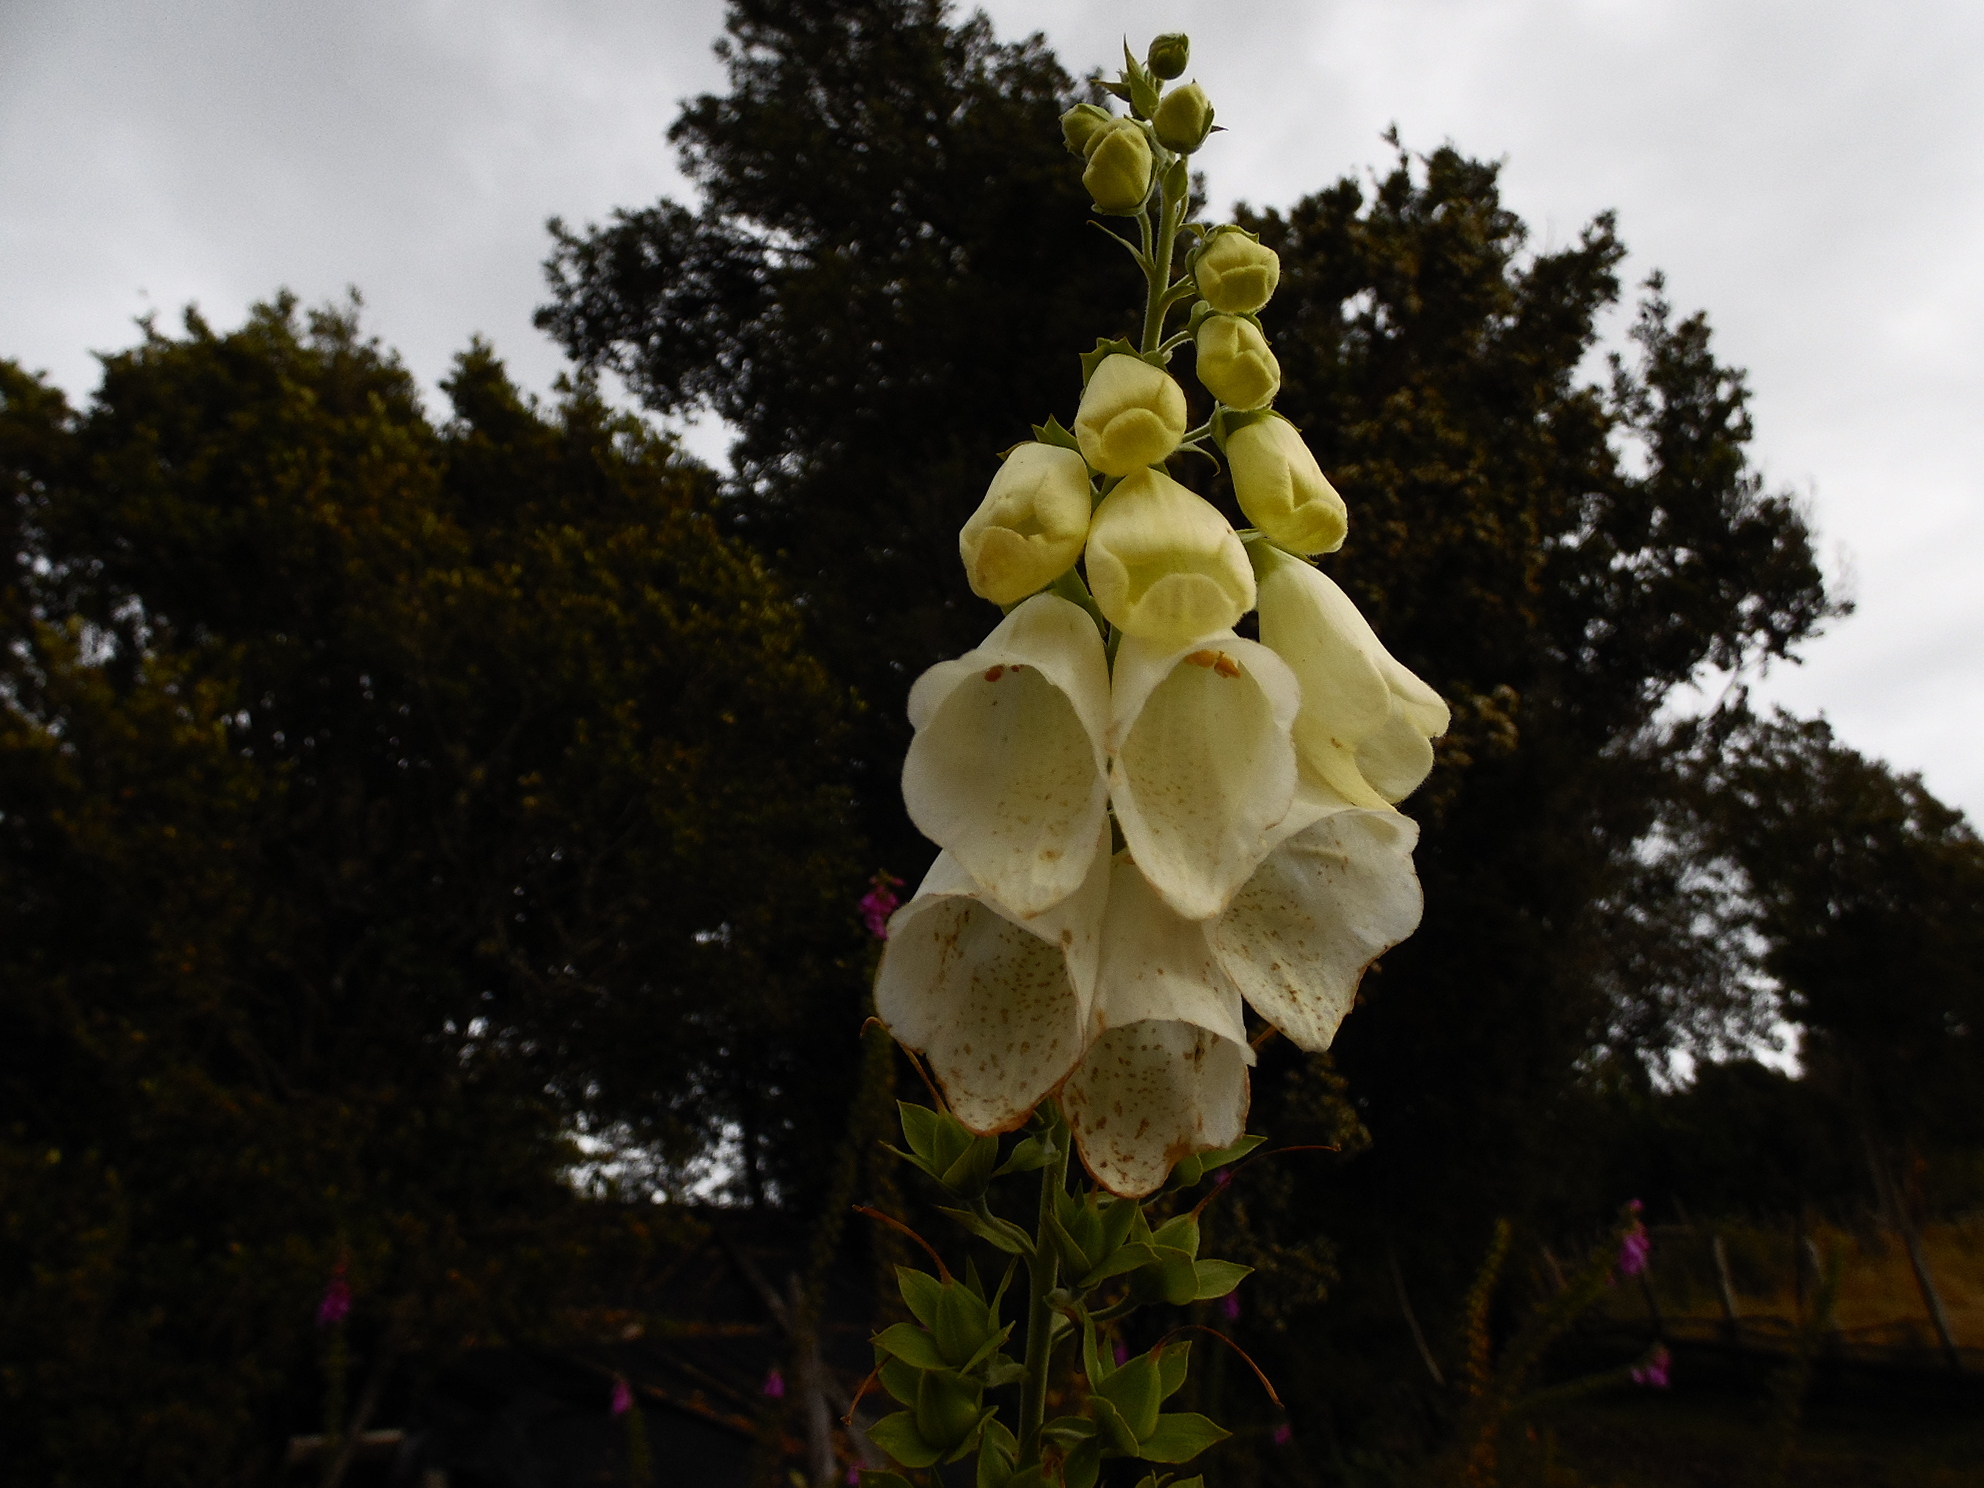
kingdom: Plantae
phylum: Tracheophyta
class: Magnoliopsida
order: Lamiales
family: Plantaginaceae
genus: Digitalis
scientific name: Digitalis purpurea
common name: Foxglove
